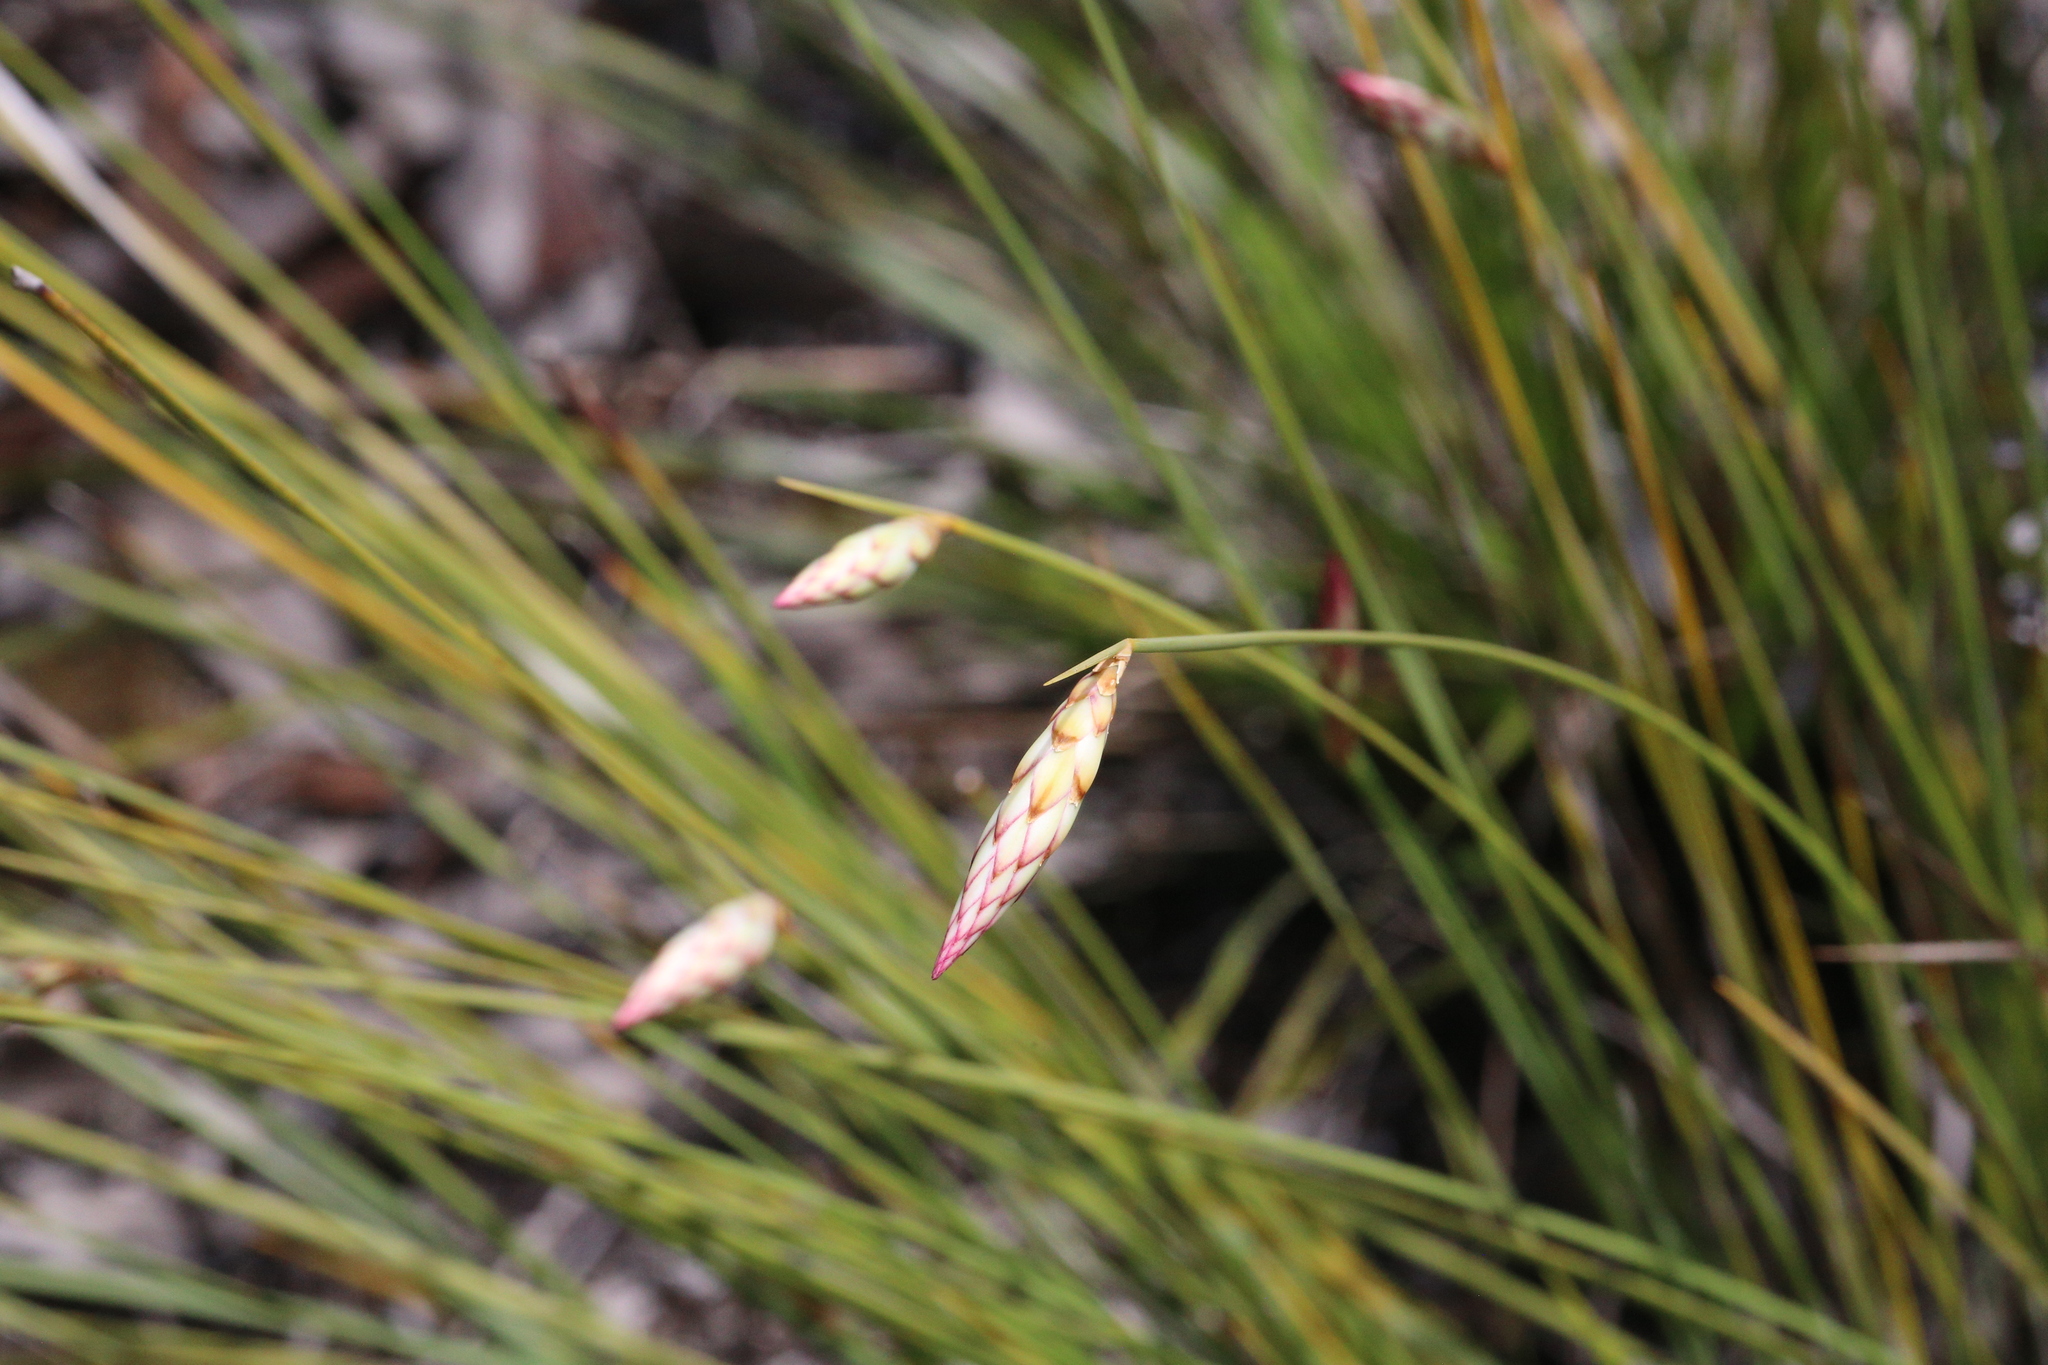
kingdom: Plantae
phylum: Tracheophyta
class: Liliopsida
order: Asparagales
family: Asphodelaceae
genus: Johnsonia
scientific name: Johnsonia lupulina
